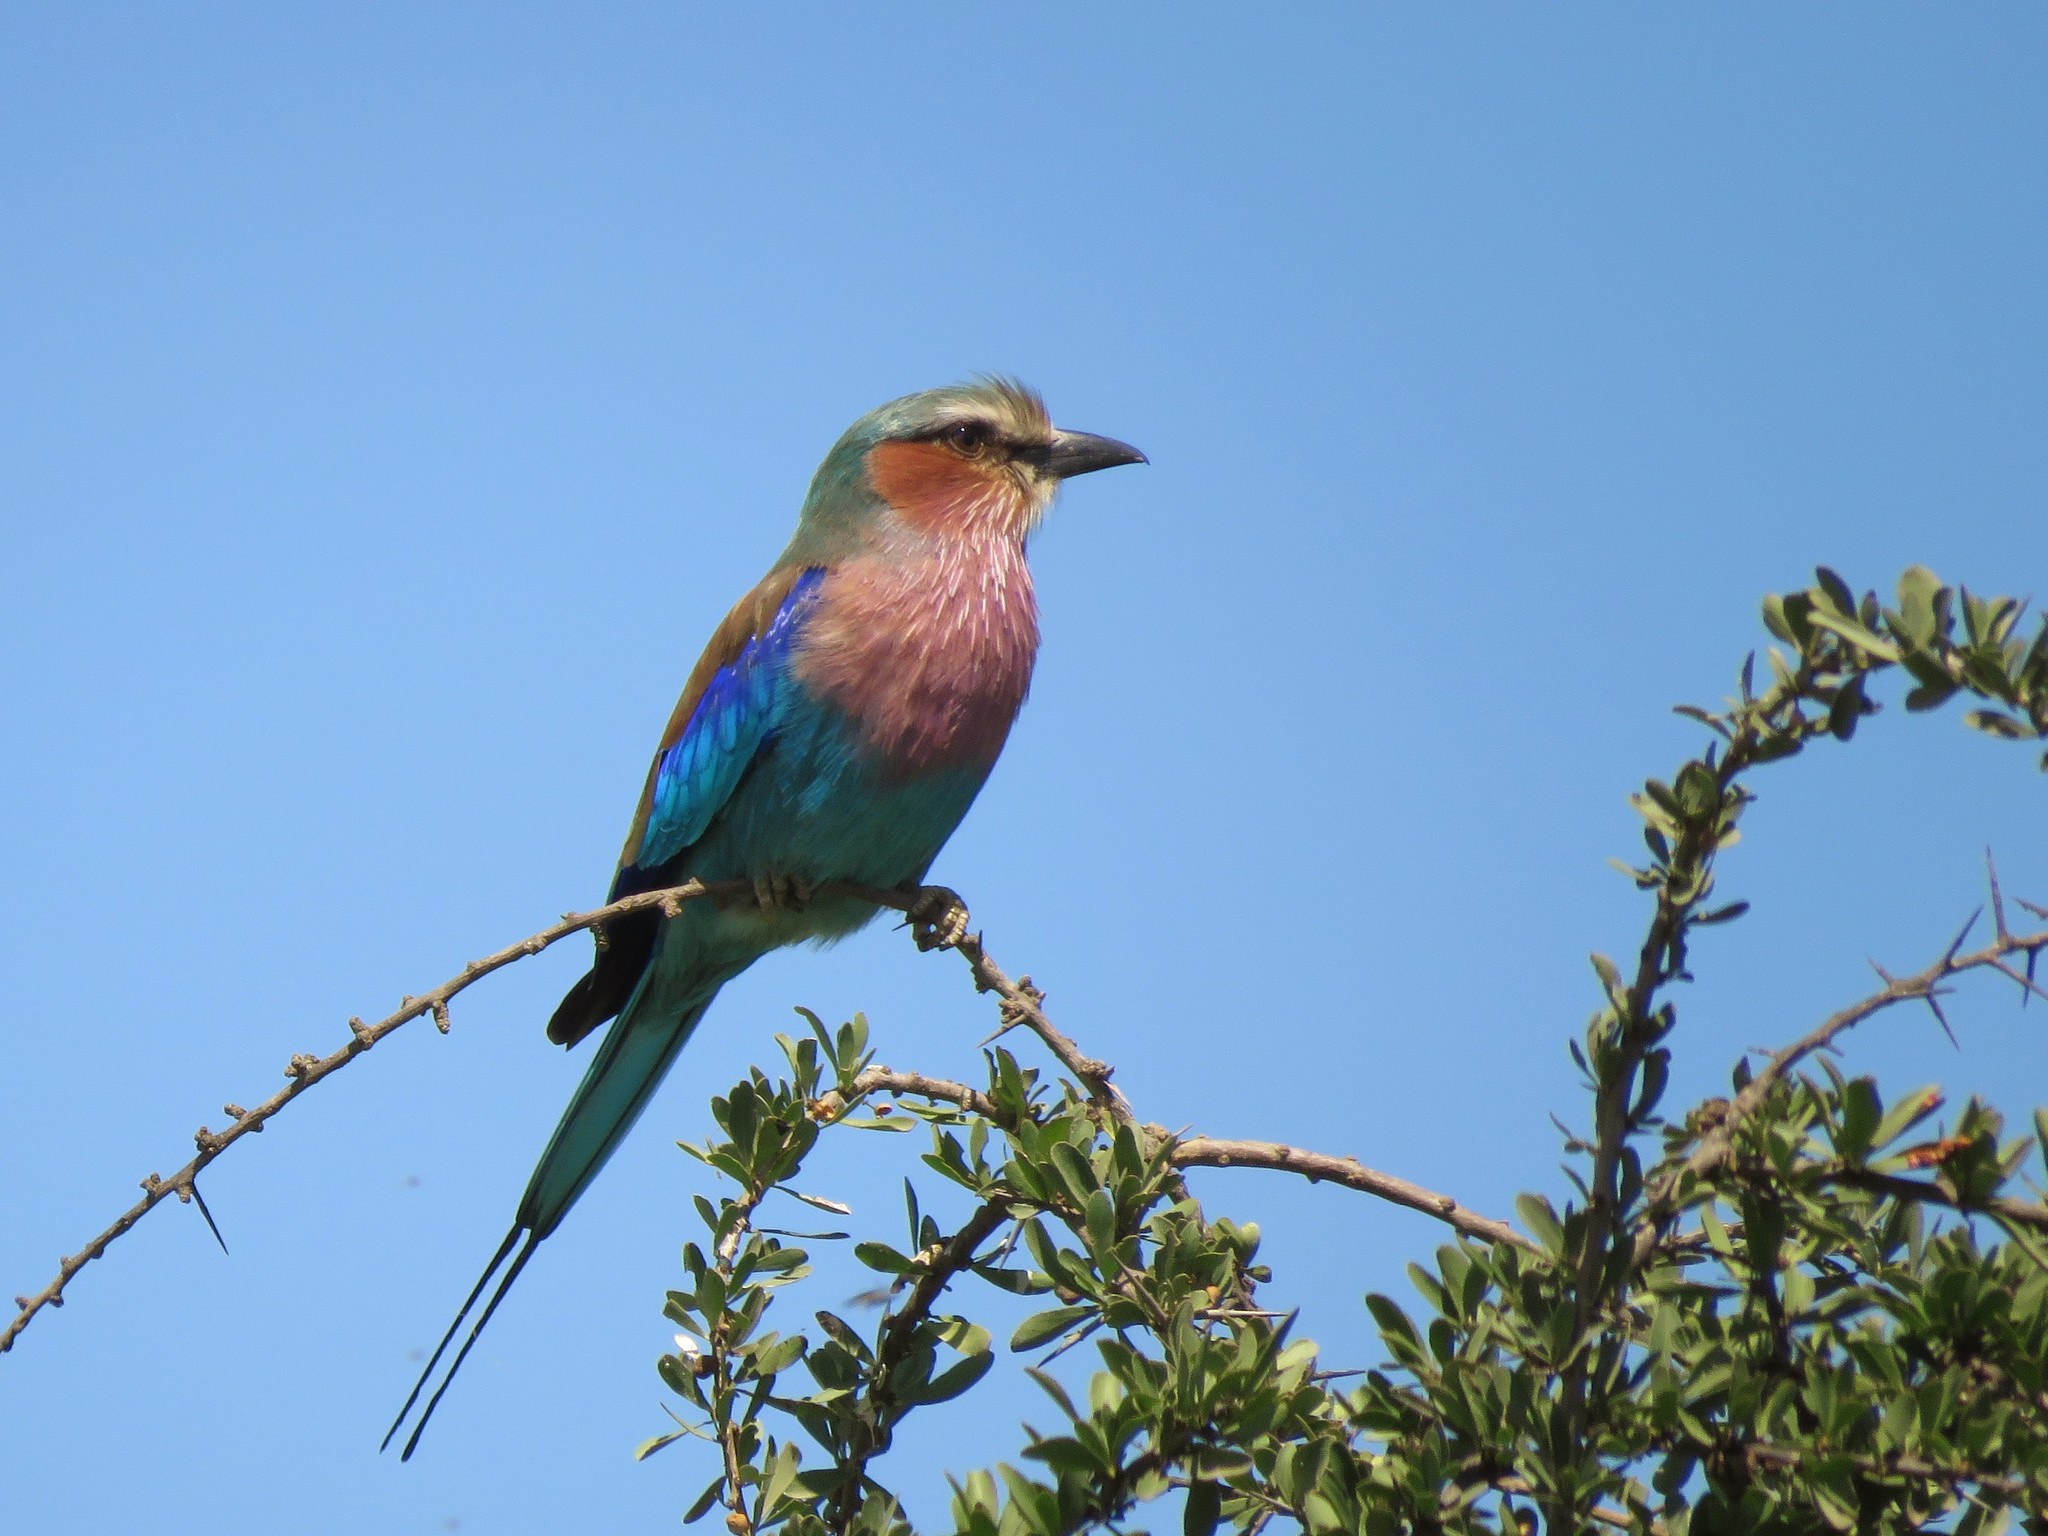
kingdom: Animalia
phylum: Chordata
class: Aves
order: Coraciiformes
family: Coraciidae
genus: Coracias
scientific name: Coracias caudatus
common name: Lilac-breasted roller
